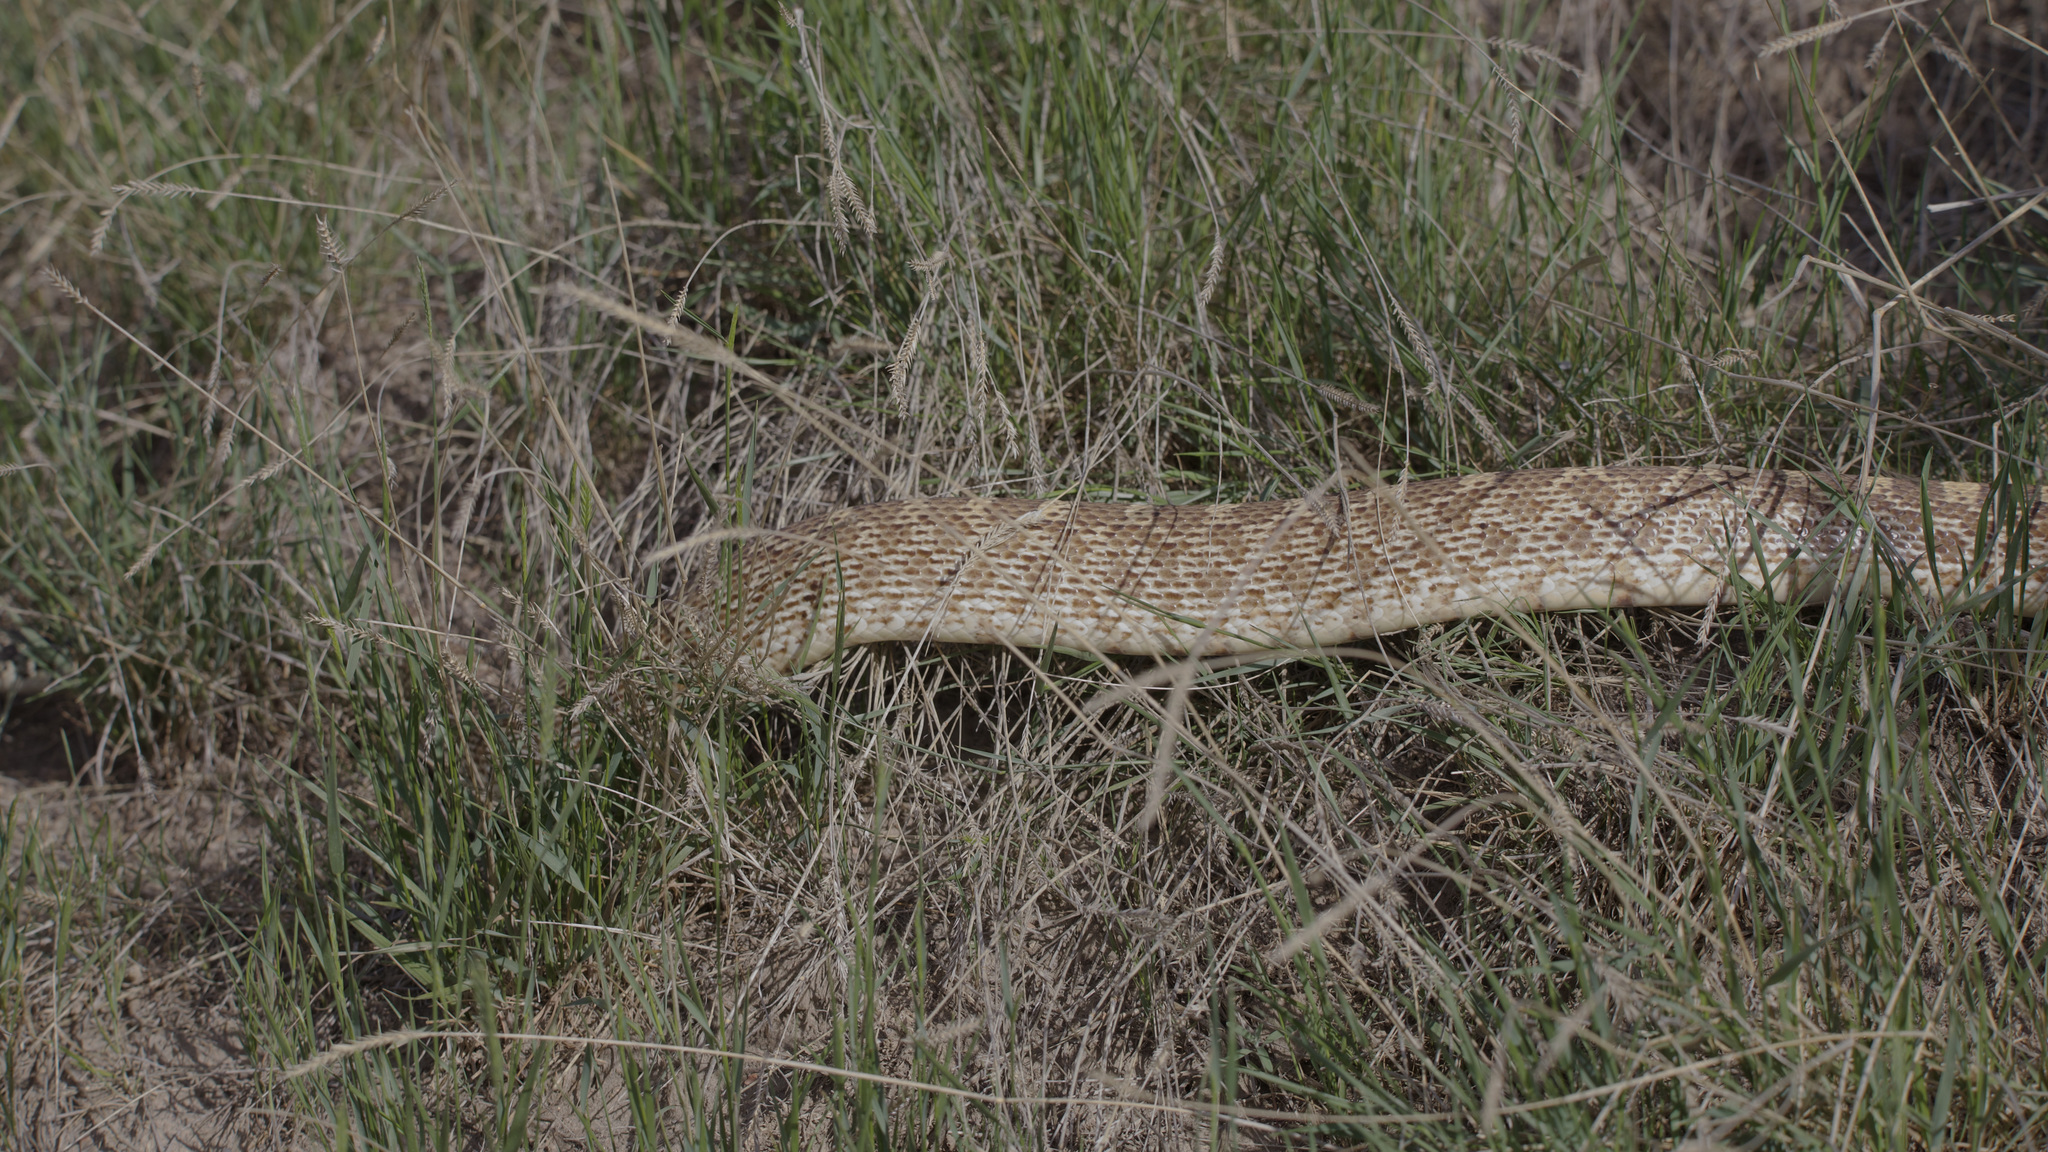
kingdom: Animalia
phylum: Chordata
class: Squamata
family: Colubridae
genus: Pituophis
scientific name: Pituophis catenifer
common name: Gopher snake
